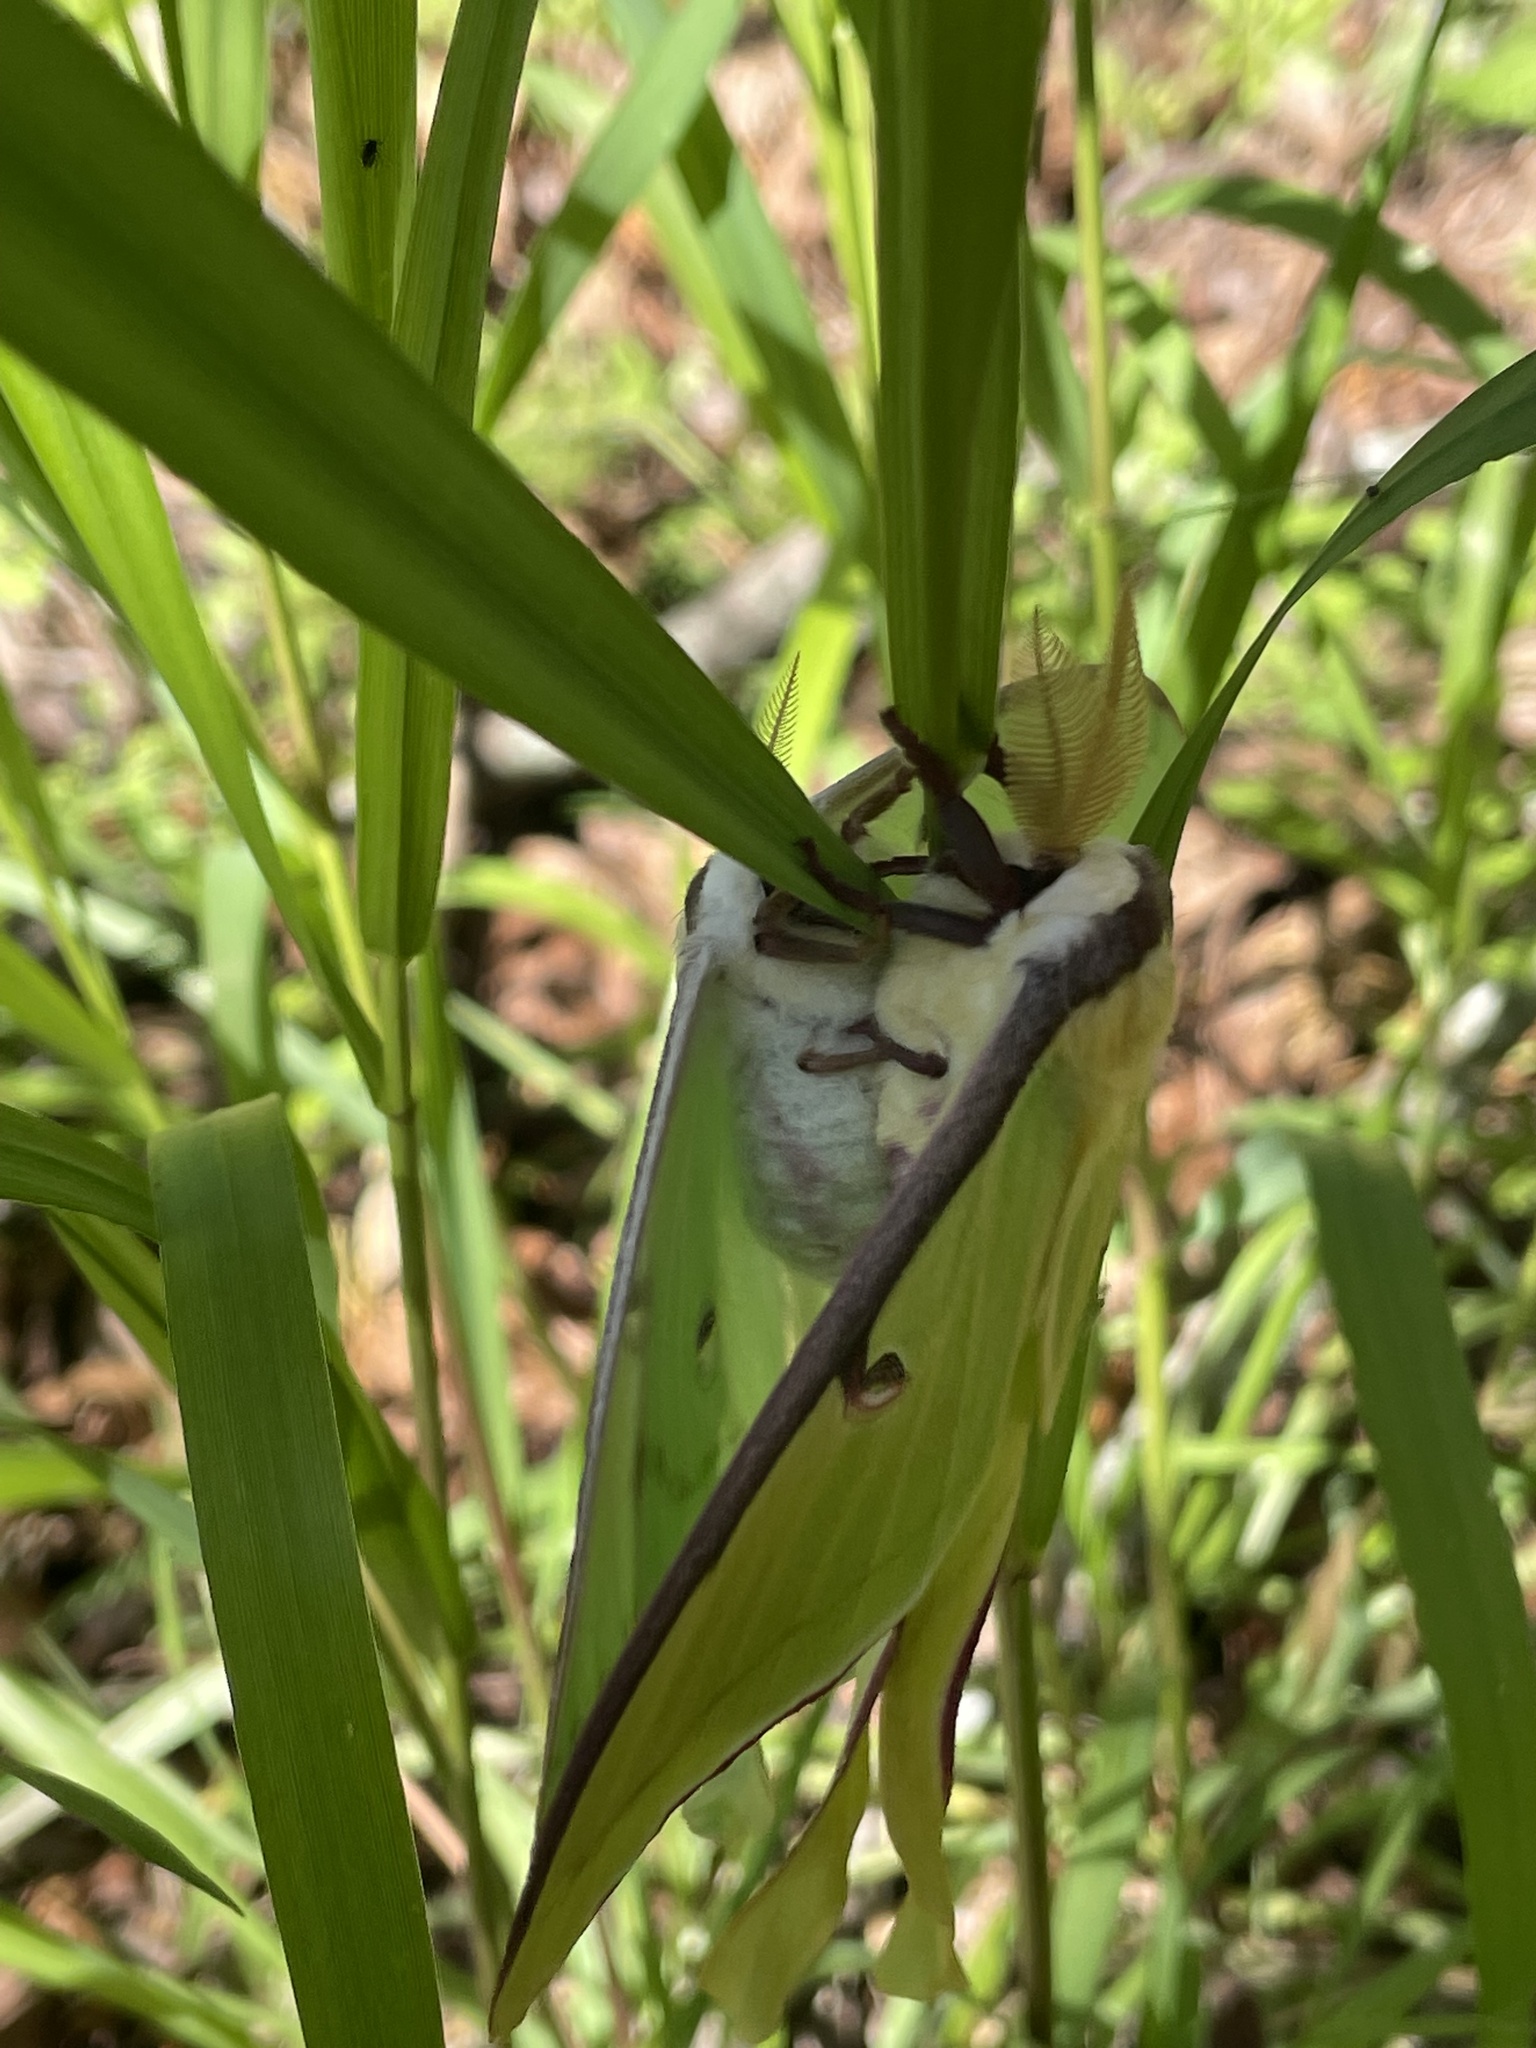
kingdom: Animalia
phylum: Arthropoda
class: Insecta
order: Lepidoptera
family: Saturniidae
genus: Actias
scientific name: Actias luna
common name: Luna moth
